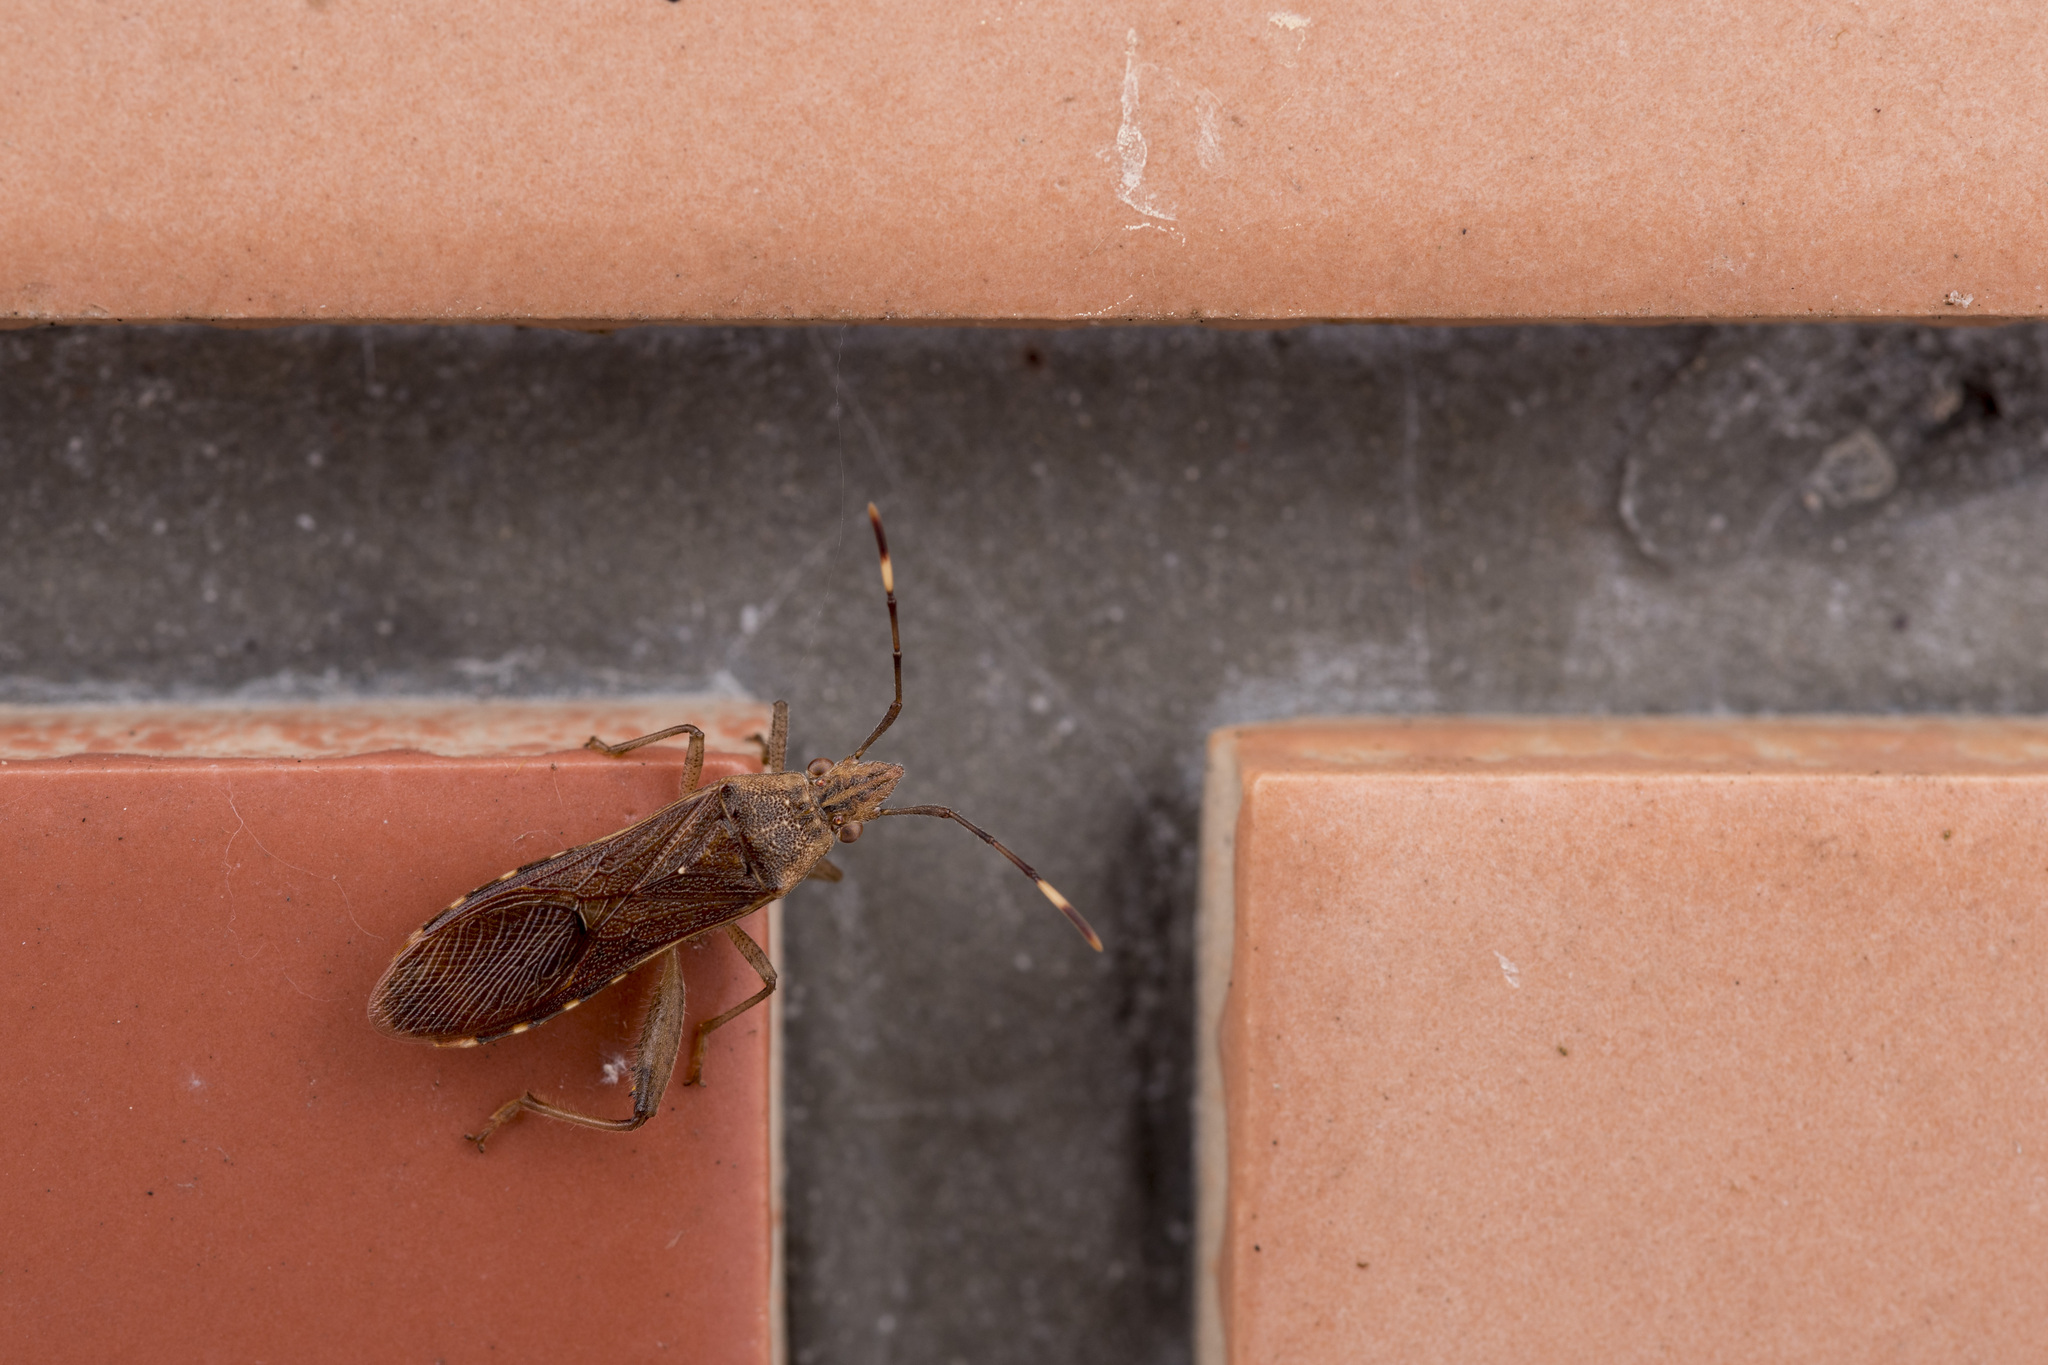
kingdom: Animalia
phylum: Arthropoda
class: Insecta
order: Hemiptera
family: Alydidae
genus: Daclera
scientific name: Daclera levana
